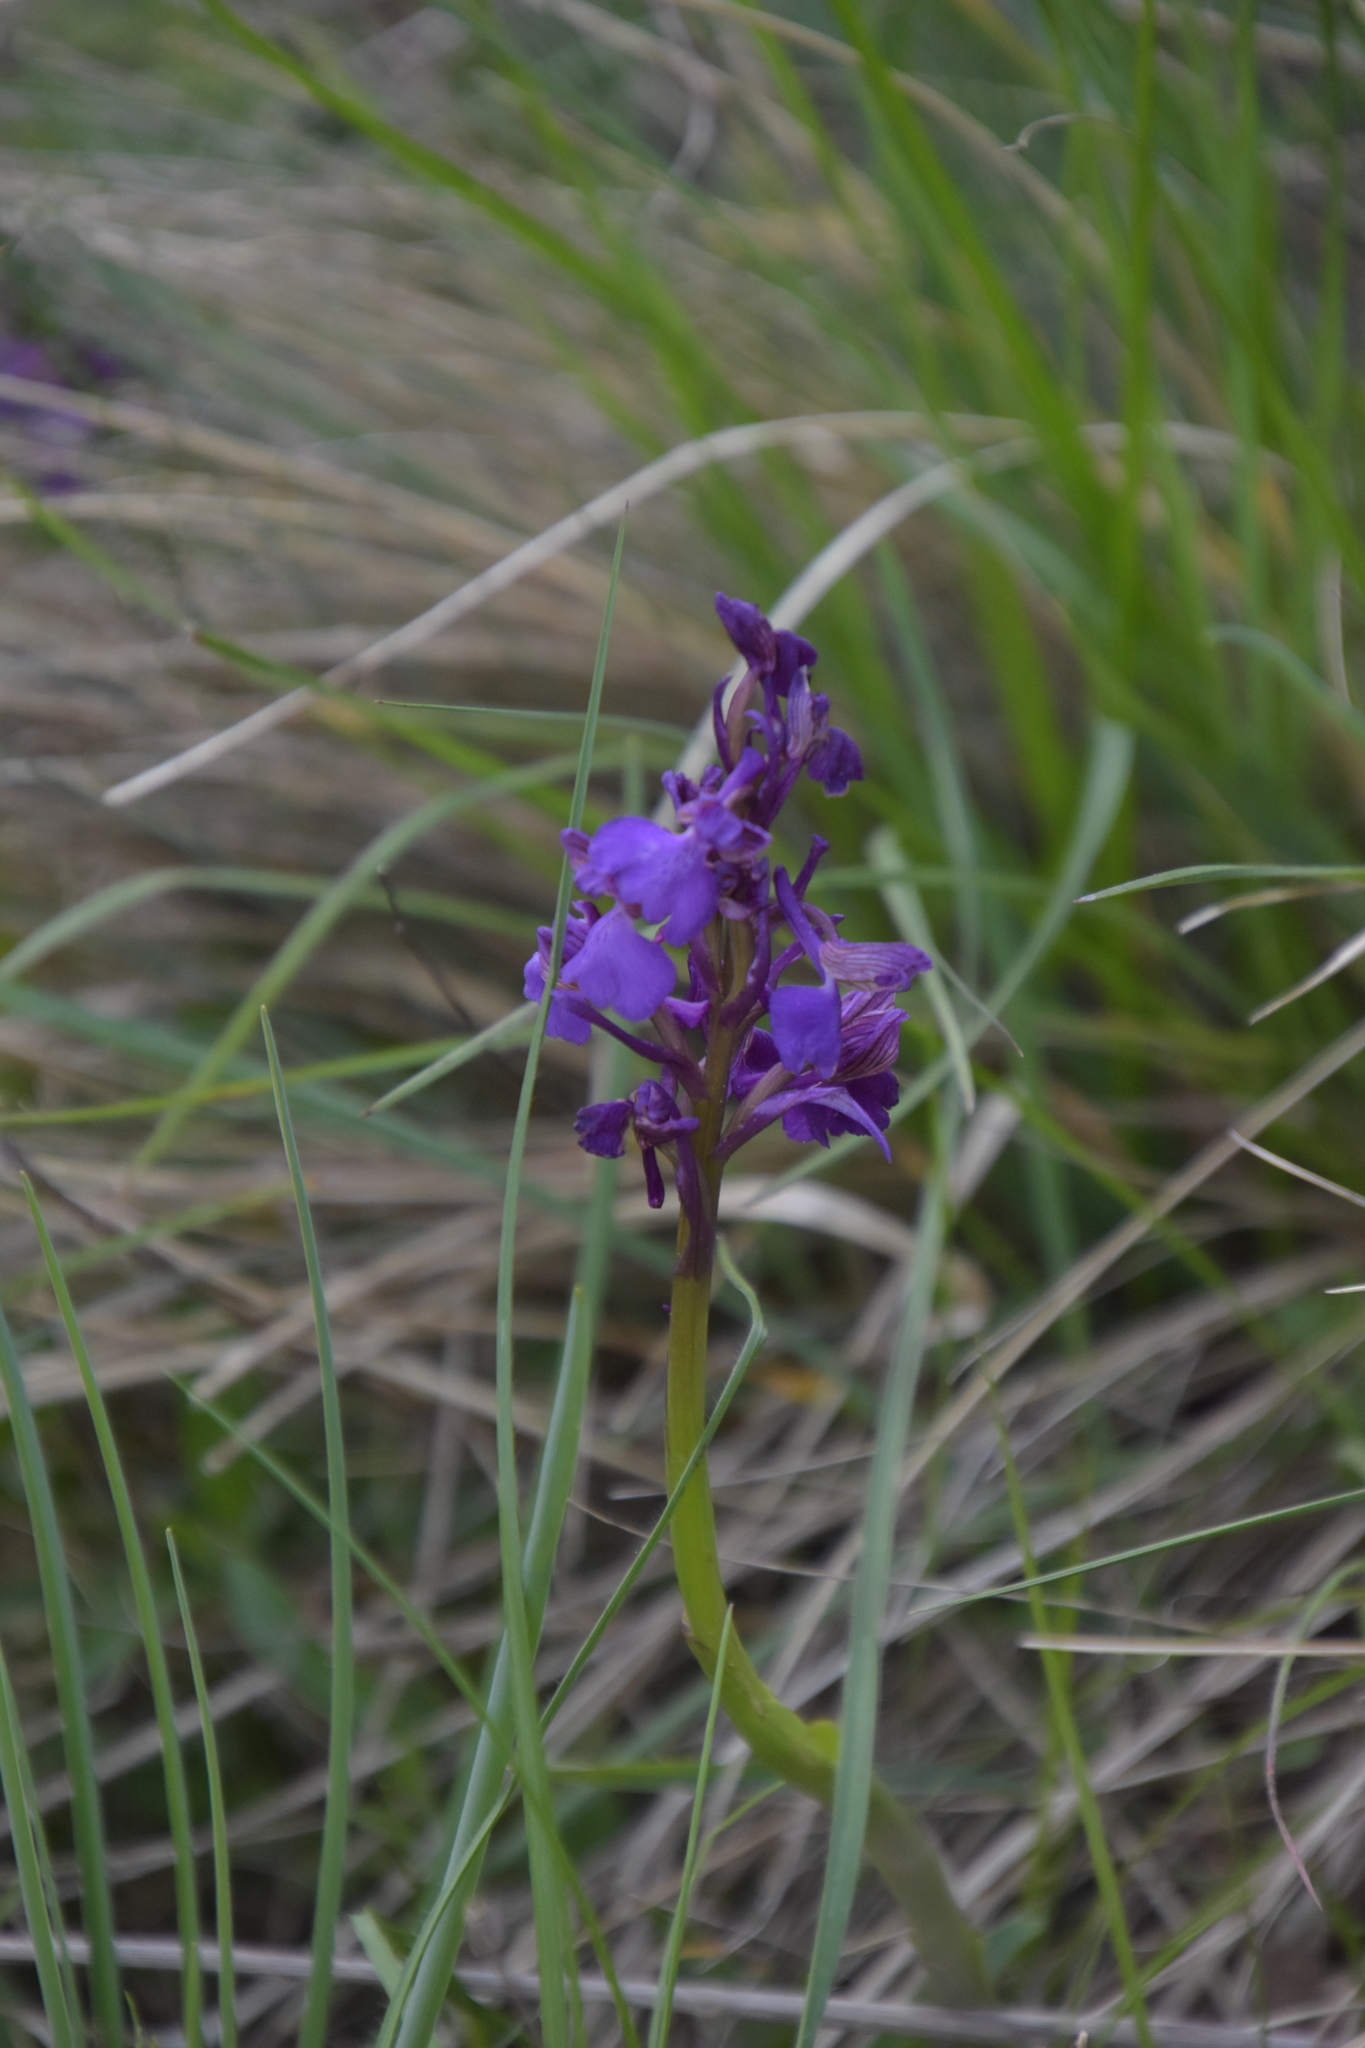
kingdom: Plantae
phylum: Tracheophyta
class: Liliopsida
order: Asparagales
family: Orchidaceae
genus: Anacamptis
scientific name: Anacamptis morio
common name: Green-winged orchid
